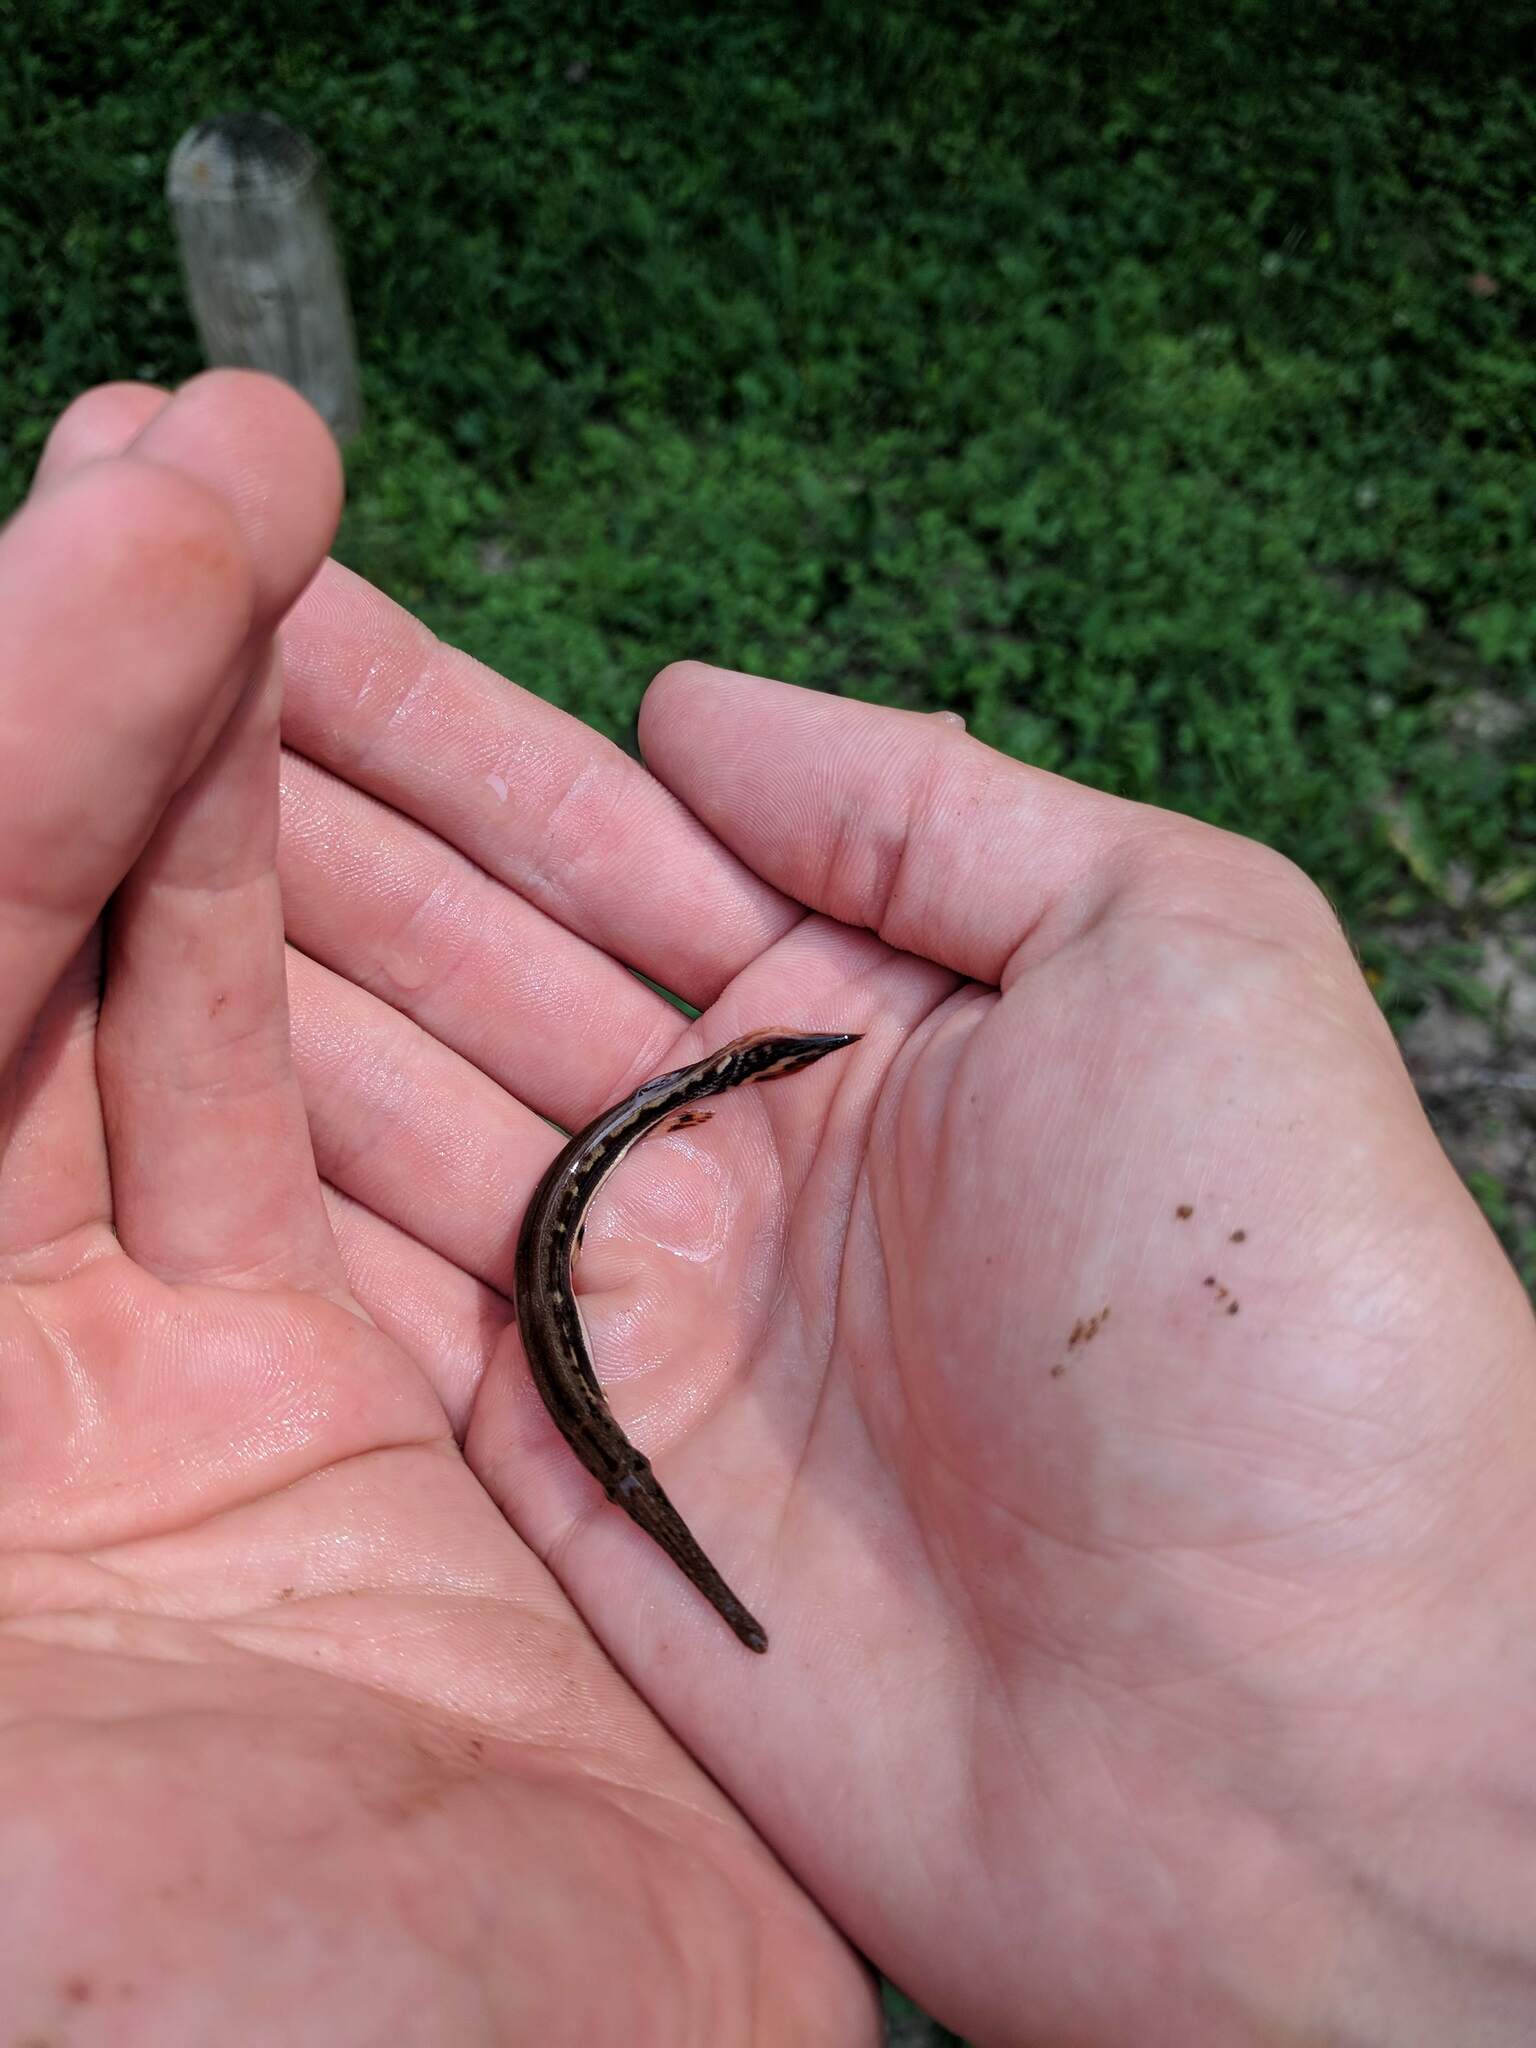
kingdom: Animalia
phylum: Chordata
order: Lepisosteiformes
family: Lepisosteidae
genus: Lepisosteus
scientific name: Lepisosteus osseus
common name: Longnose gar
